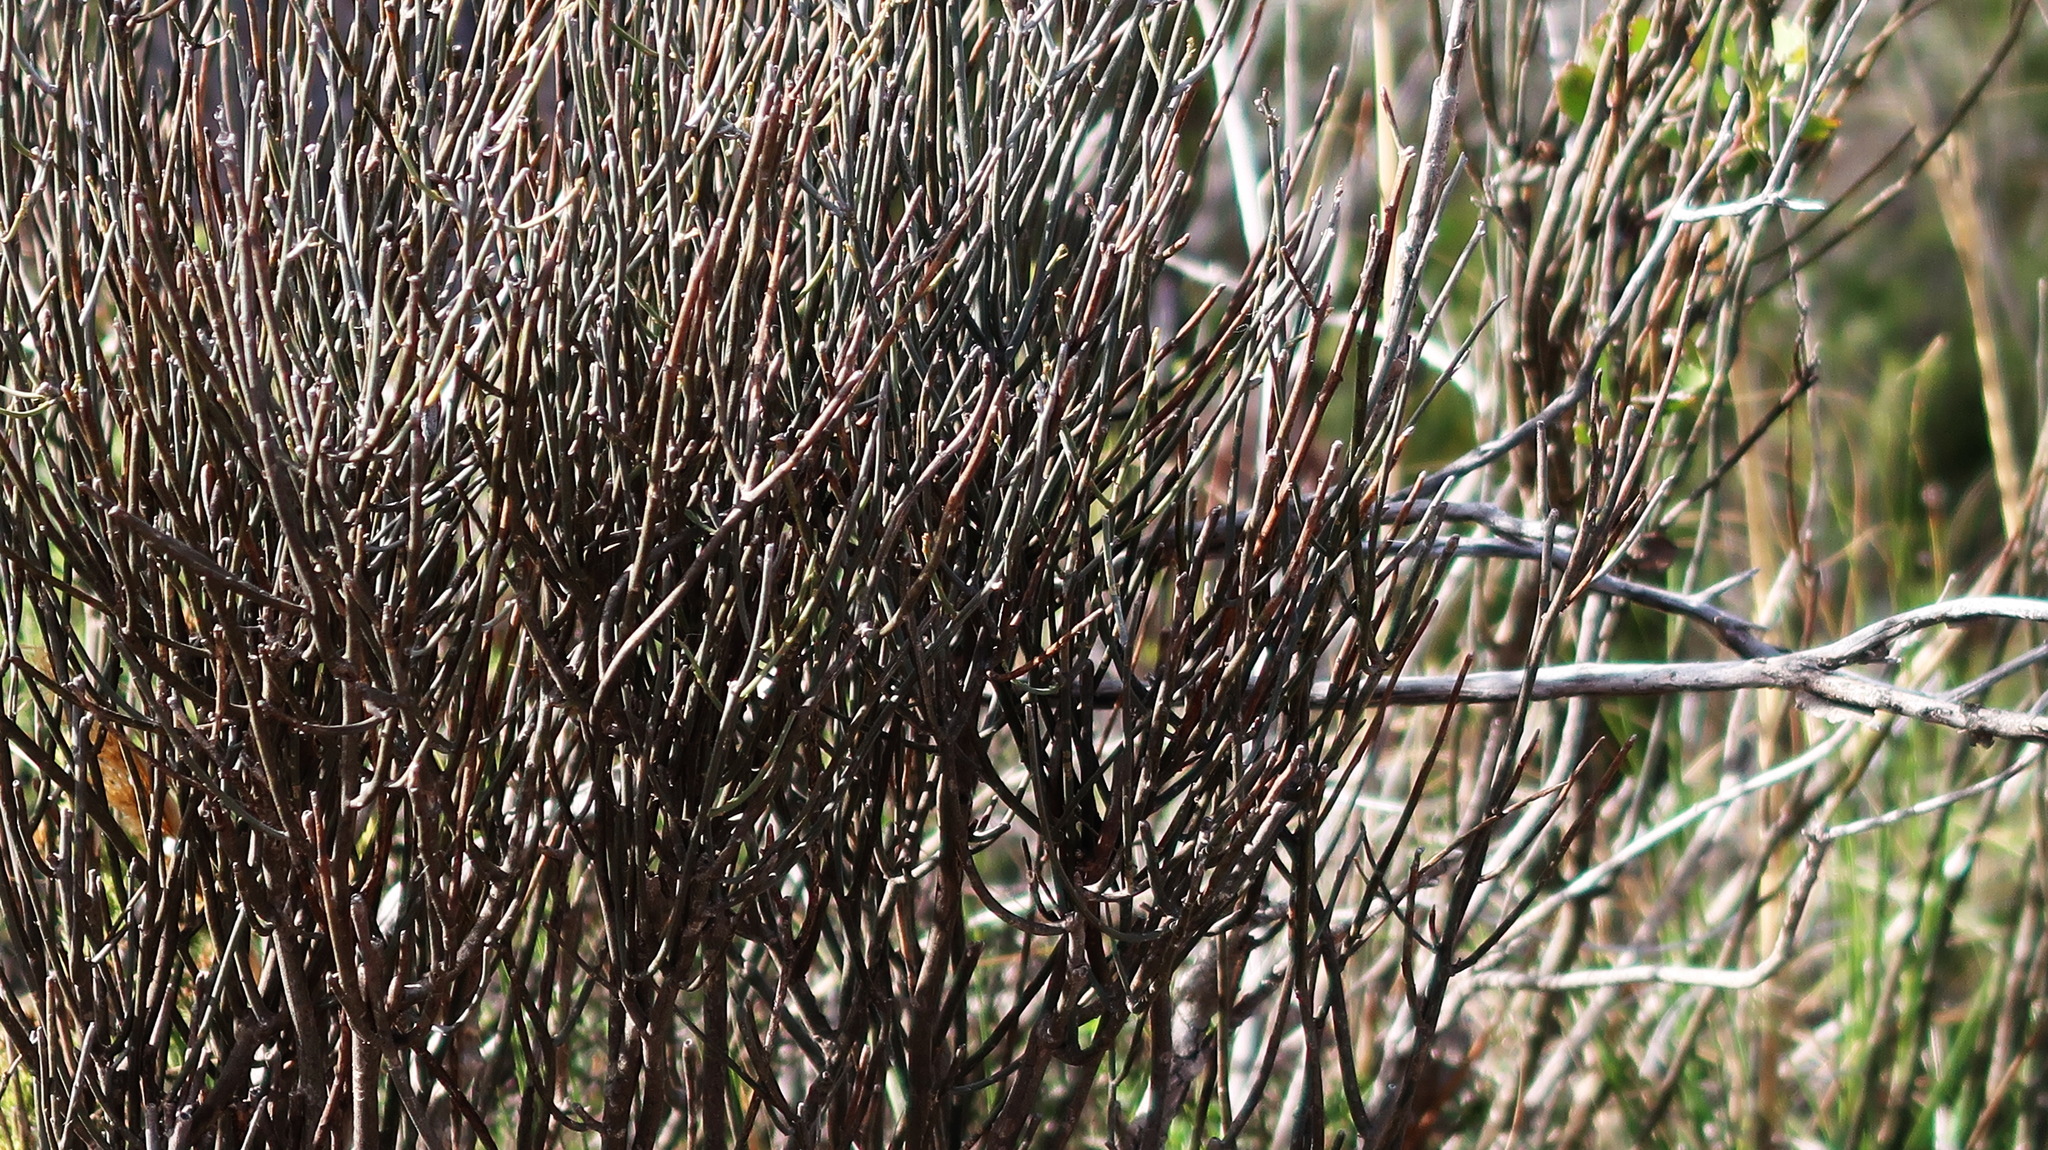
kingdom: Plantae
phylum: Tracheophyta
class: Magnoliopsida
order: Solanales
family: Montiniaceae
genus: Montinia
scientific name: Montinia caryophyllacea
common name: Wild clove-bush
